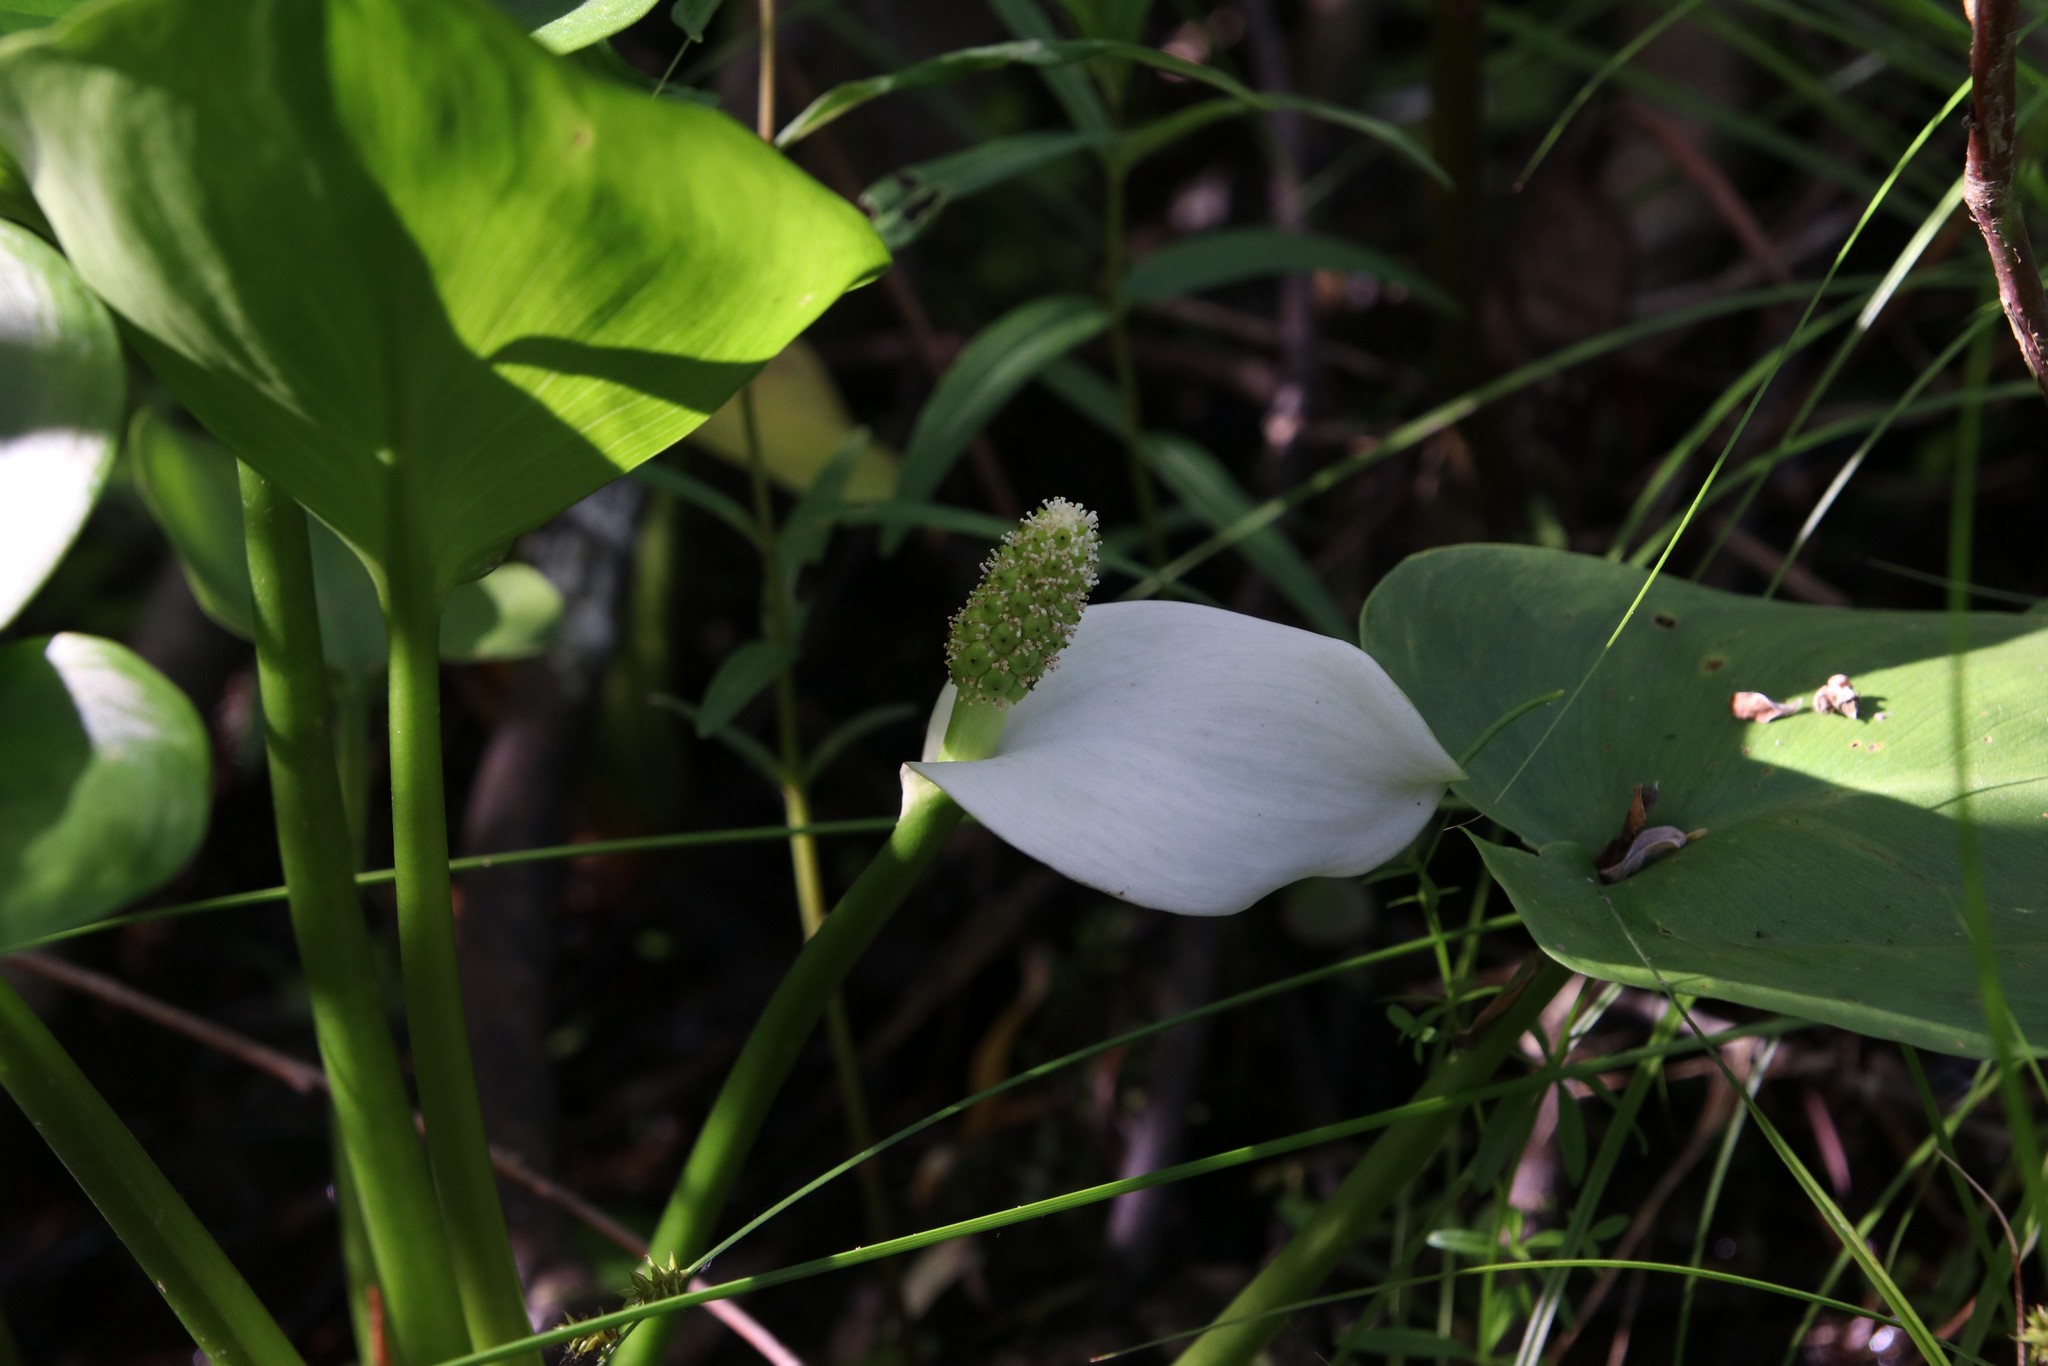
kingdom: Plantae
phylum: Tracheophyta
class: Liliopsida
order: Alismatales
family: Araceae
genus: Calla
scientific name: Calla palustris
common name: Bog arum
